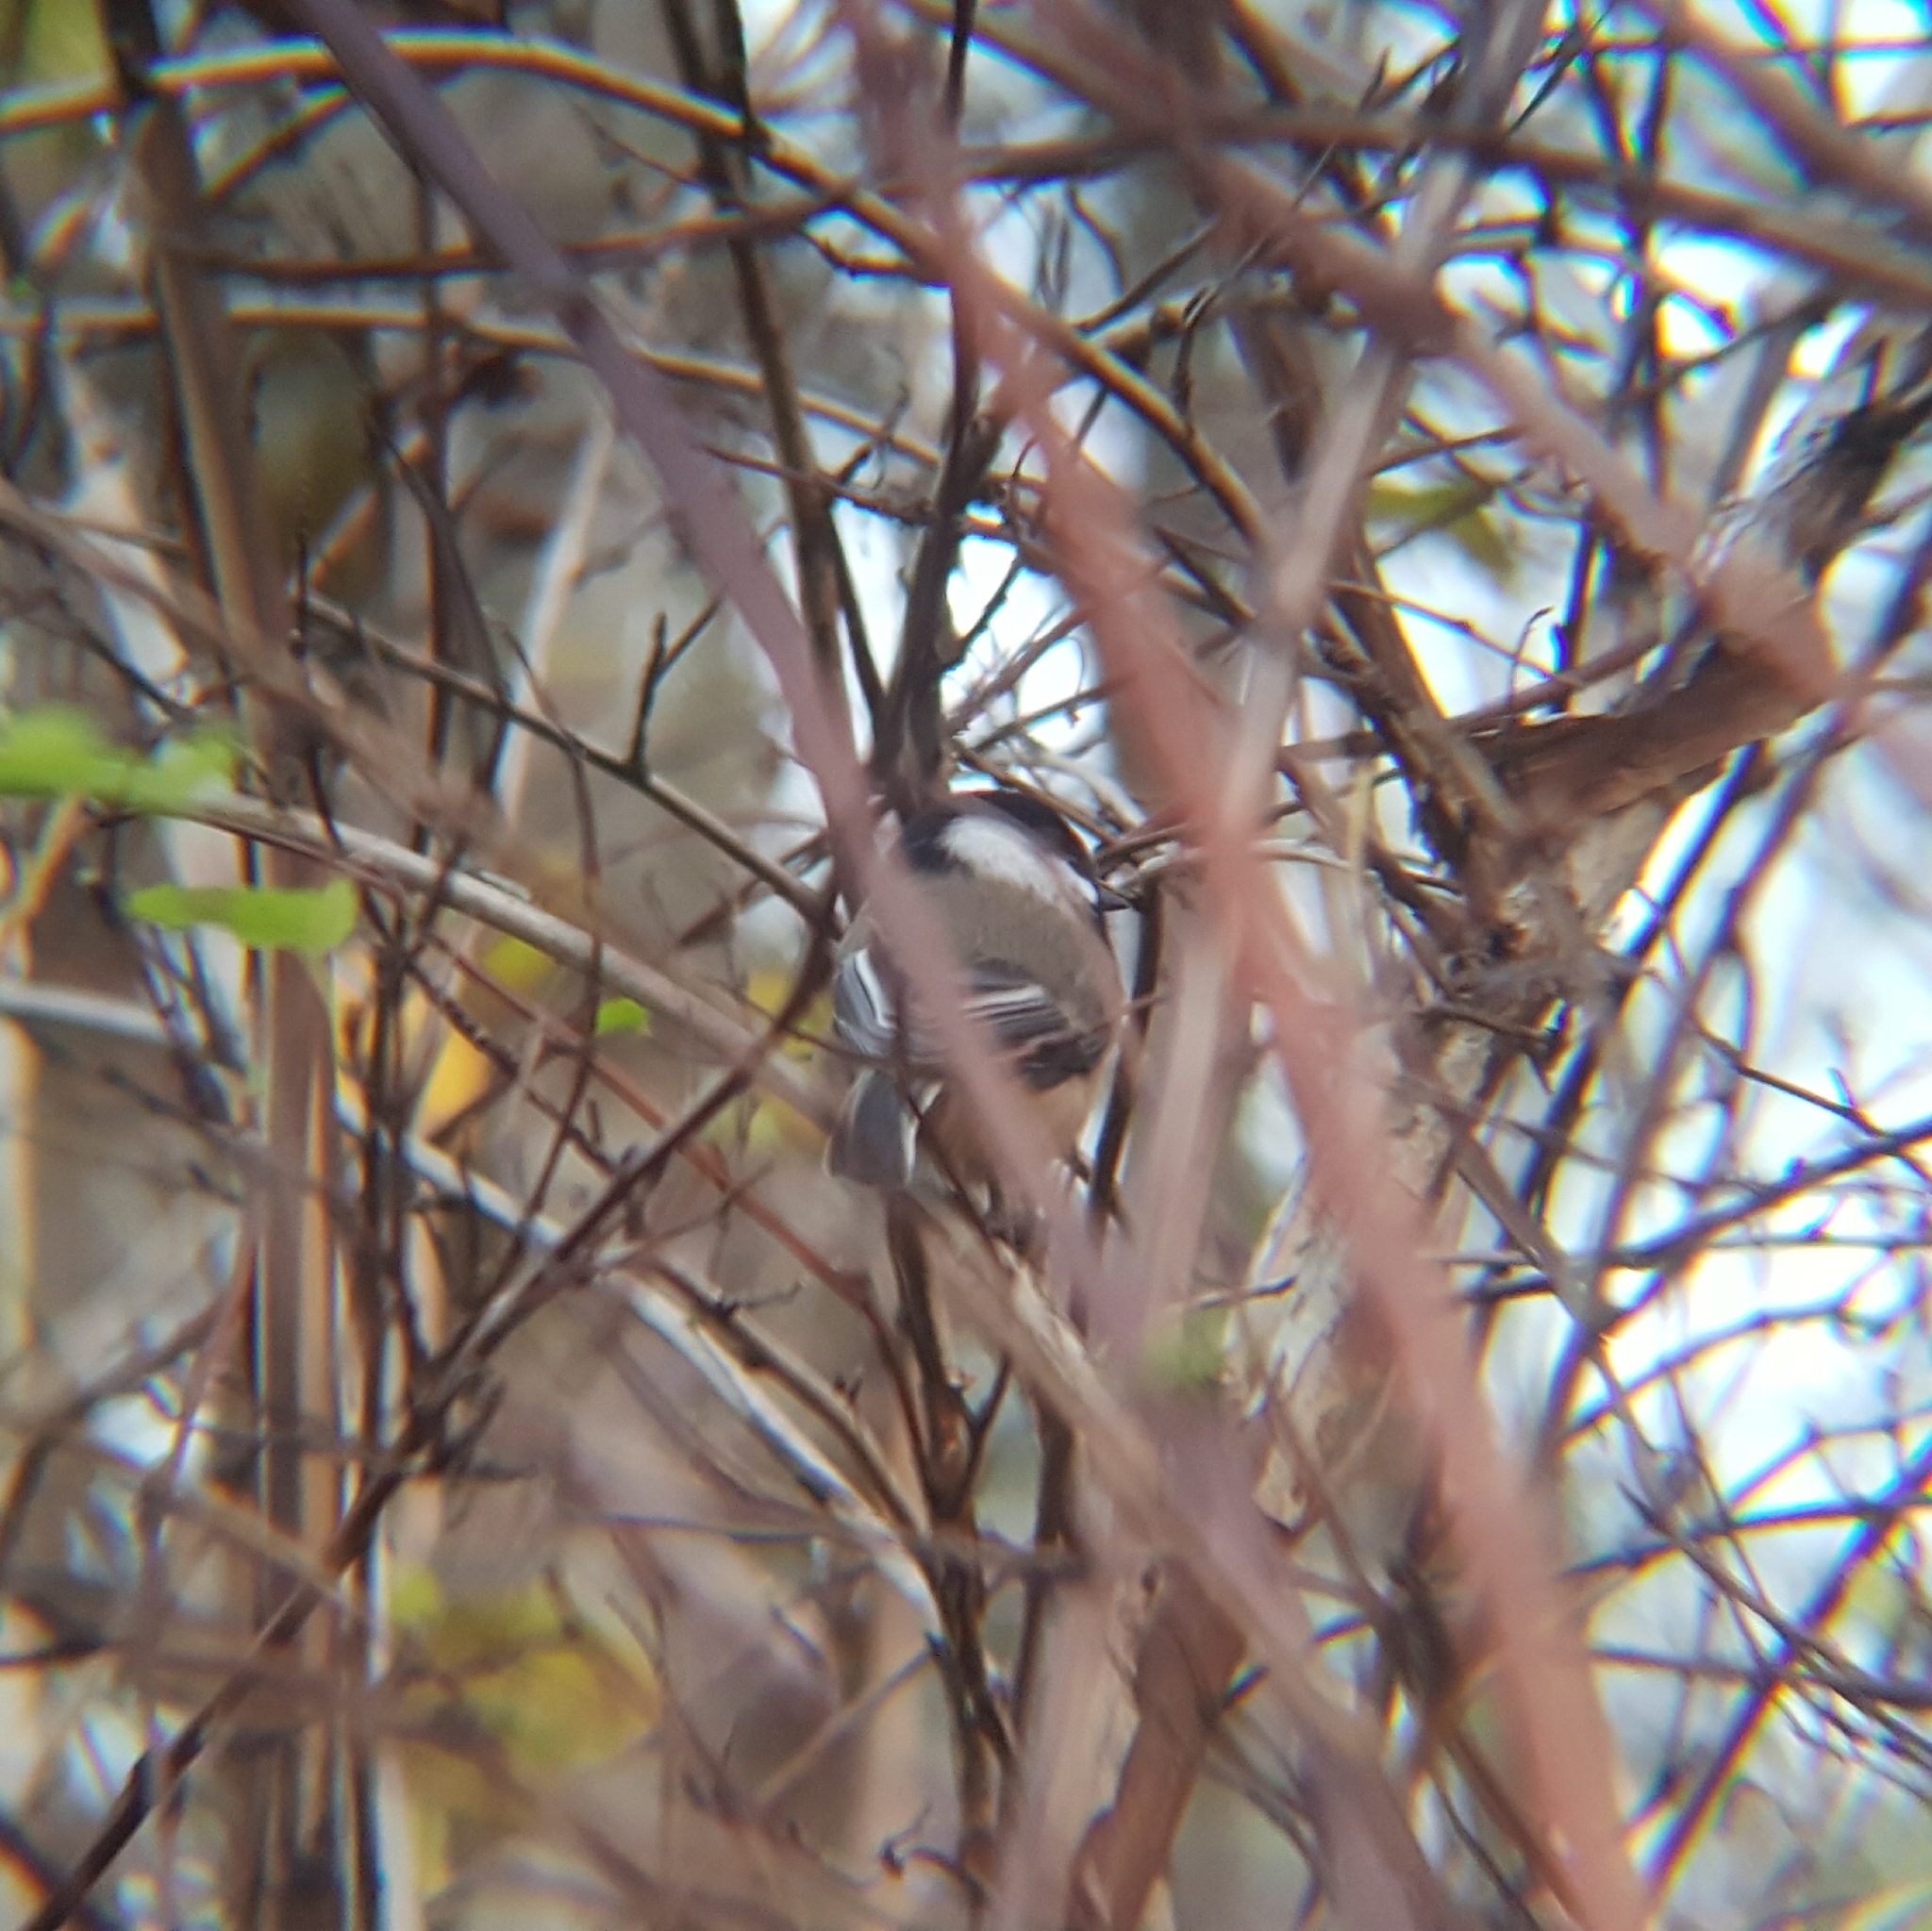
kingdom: Animalia
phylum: Chordata
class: Aves
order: Passeriformes
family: Paridae
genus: Poecile
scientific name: Poecile atricapillus
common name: Black-capped chickadee
